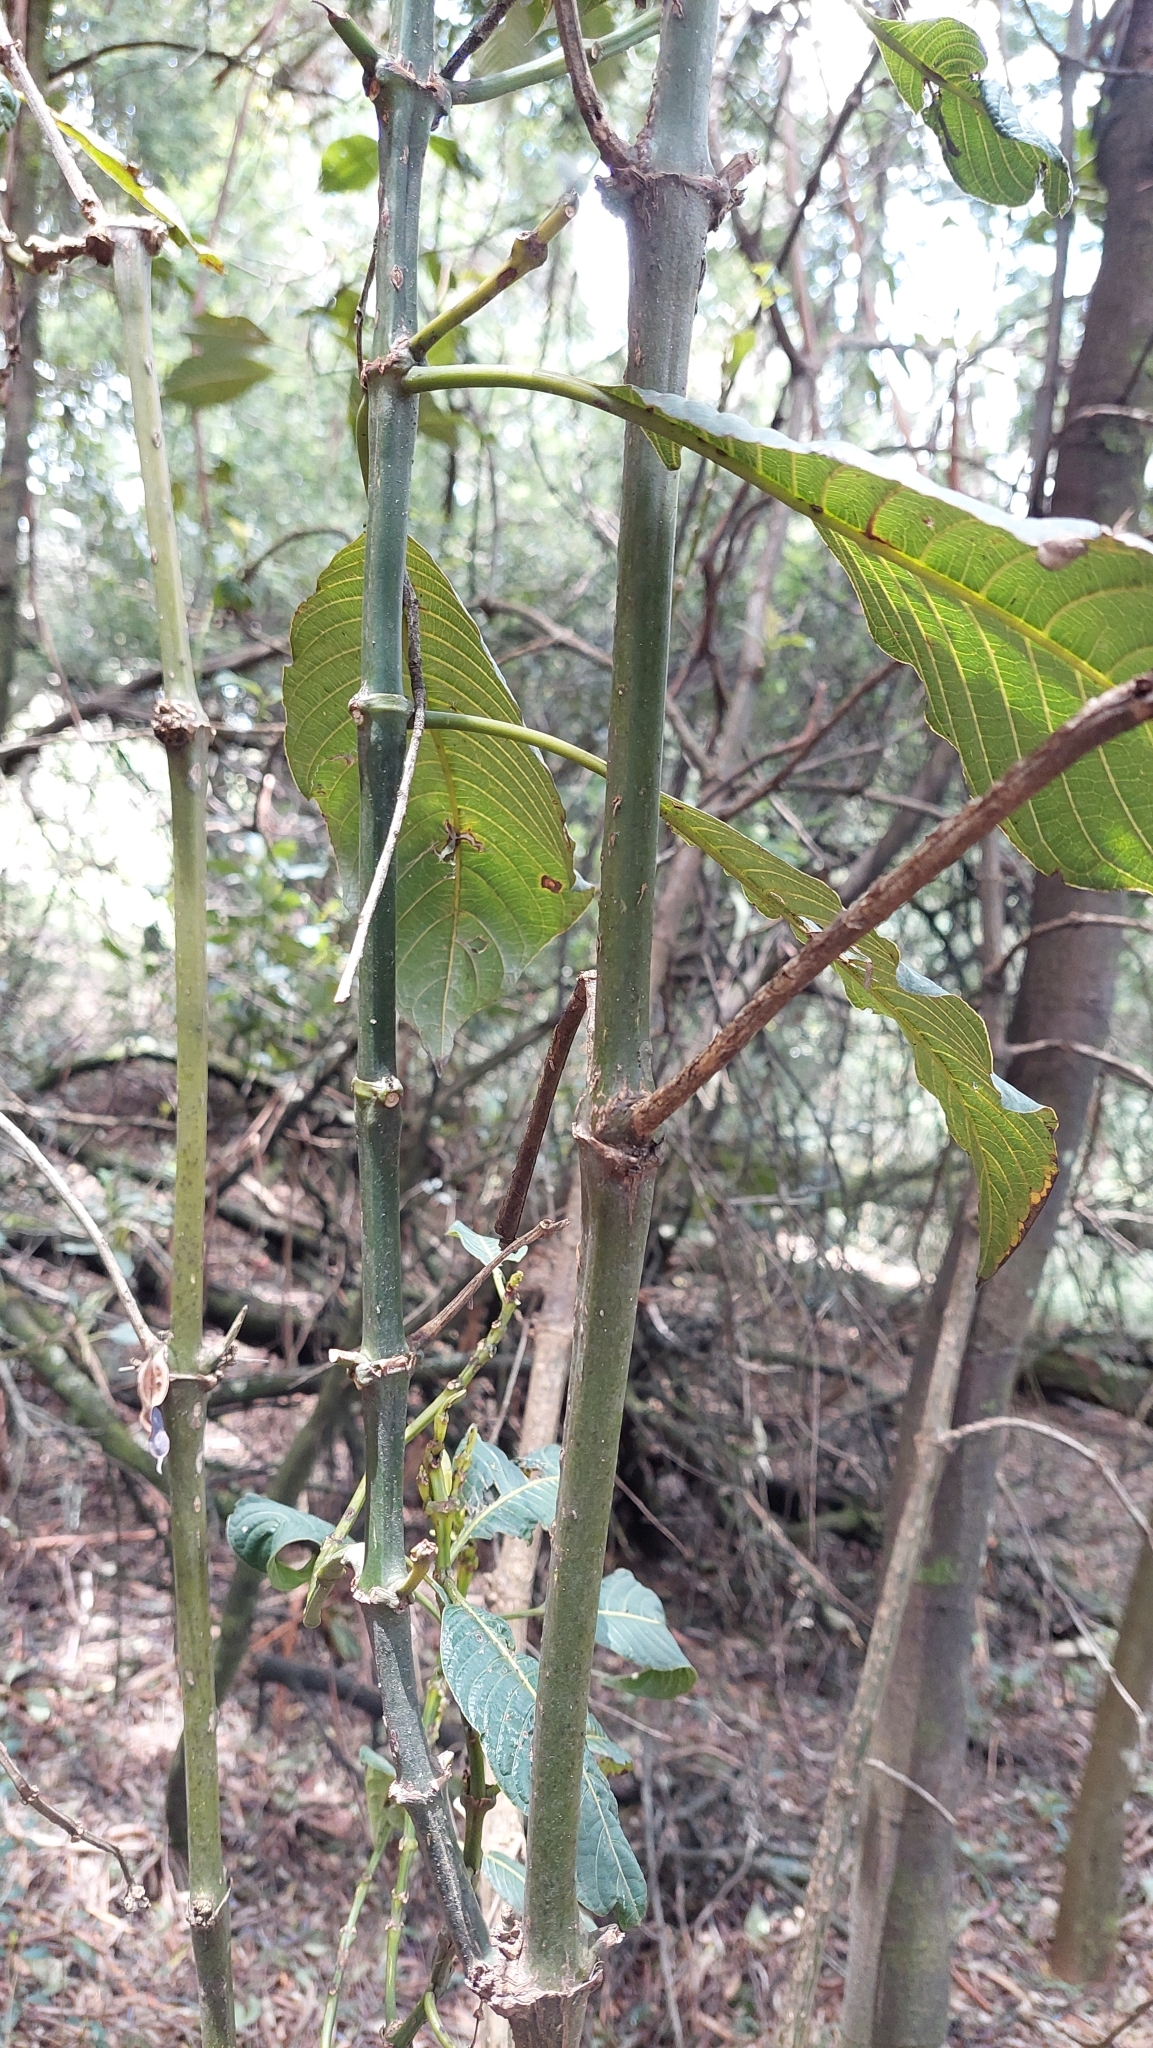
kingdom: Plantae
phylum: Tracheophyta
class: Magnoliopsida
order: Gentianales
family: Rubiaceae
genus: Palicourea
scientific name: Palicourea lineariflora
